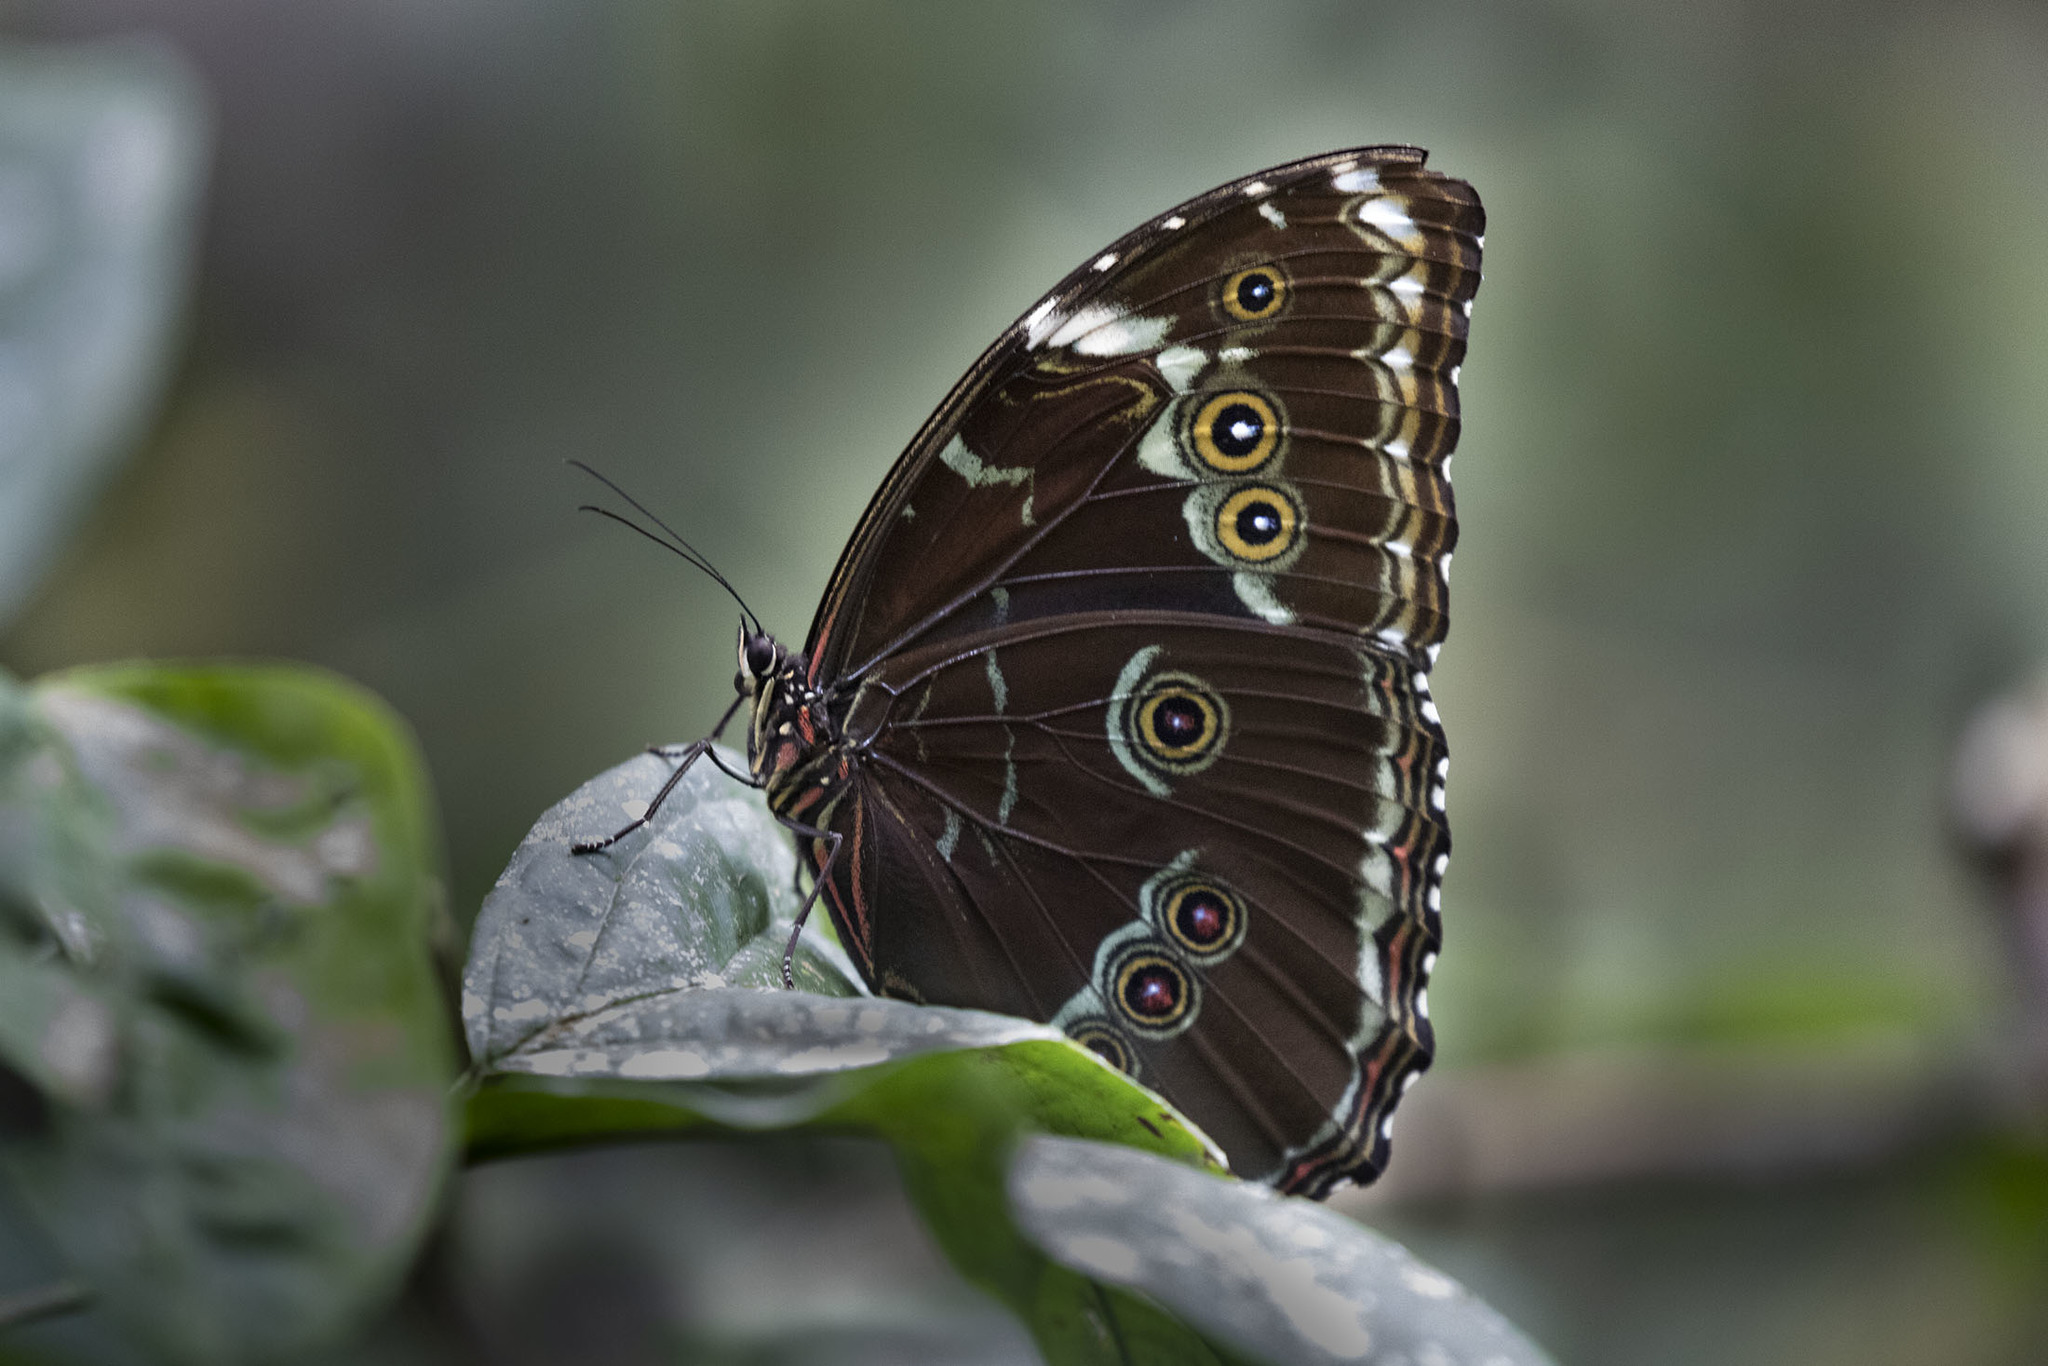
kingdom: Animalia
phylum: Arthropoda
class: Insecta
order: Lepidoptera
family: Nymphalidae
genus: Morpho
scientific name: Morpho achilles
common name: Achilles morpho
